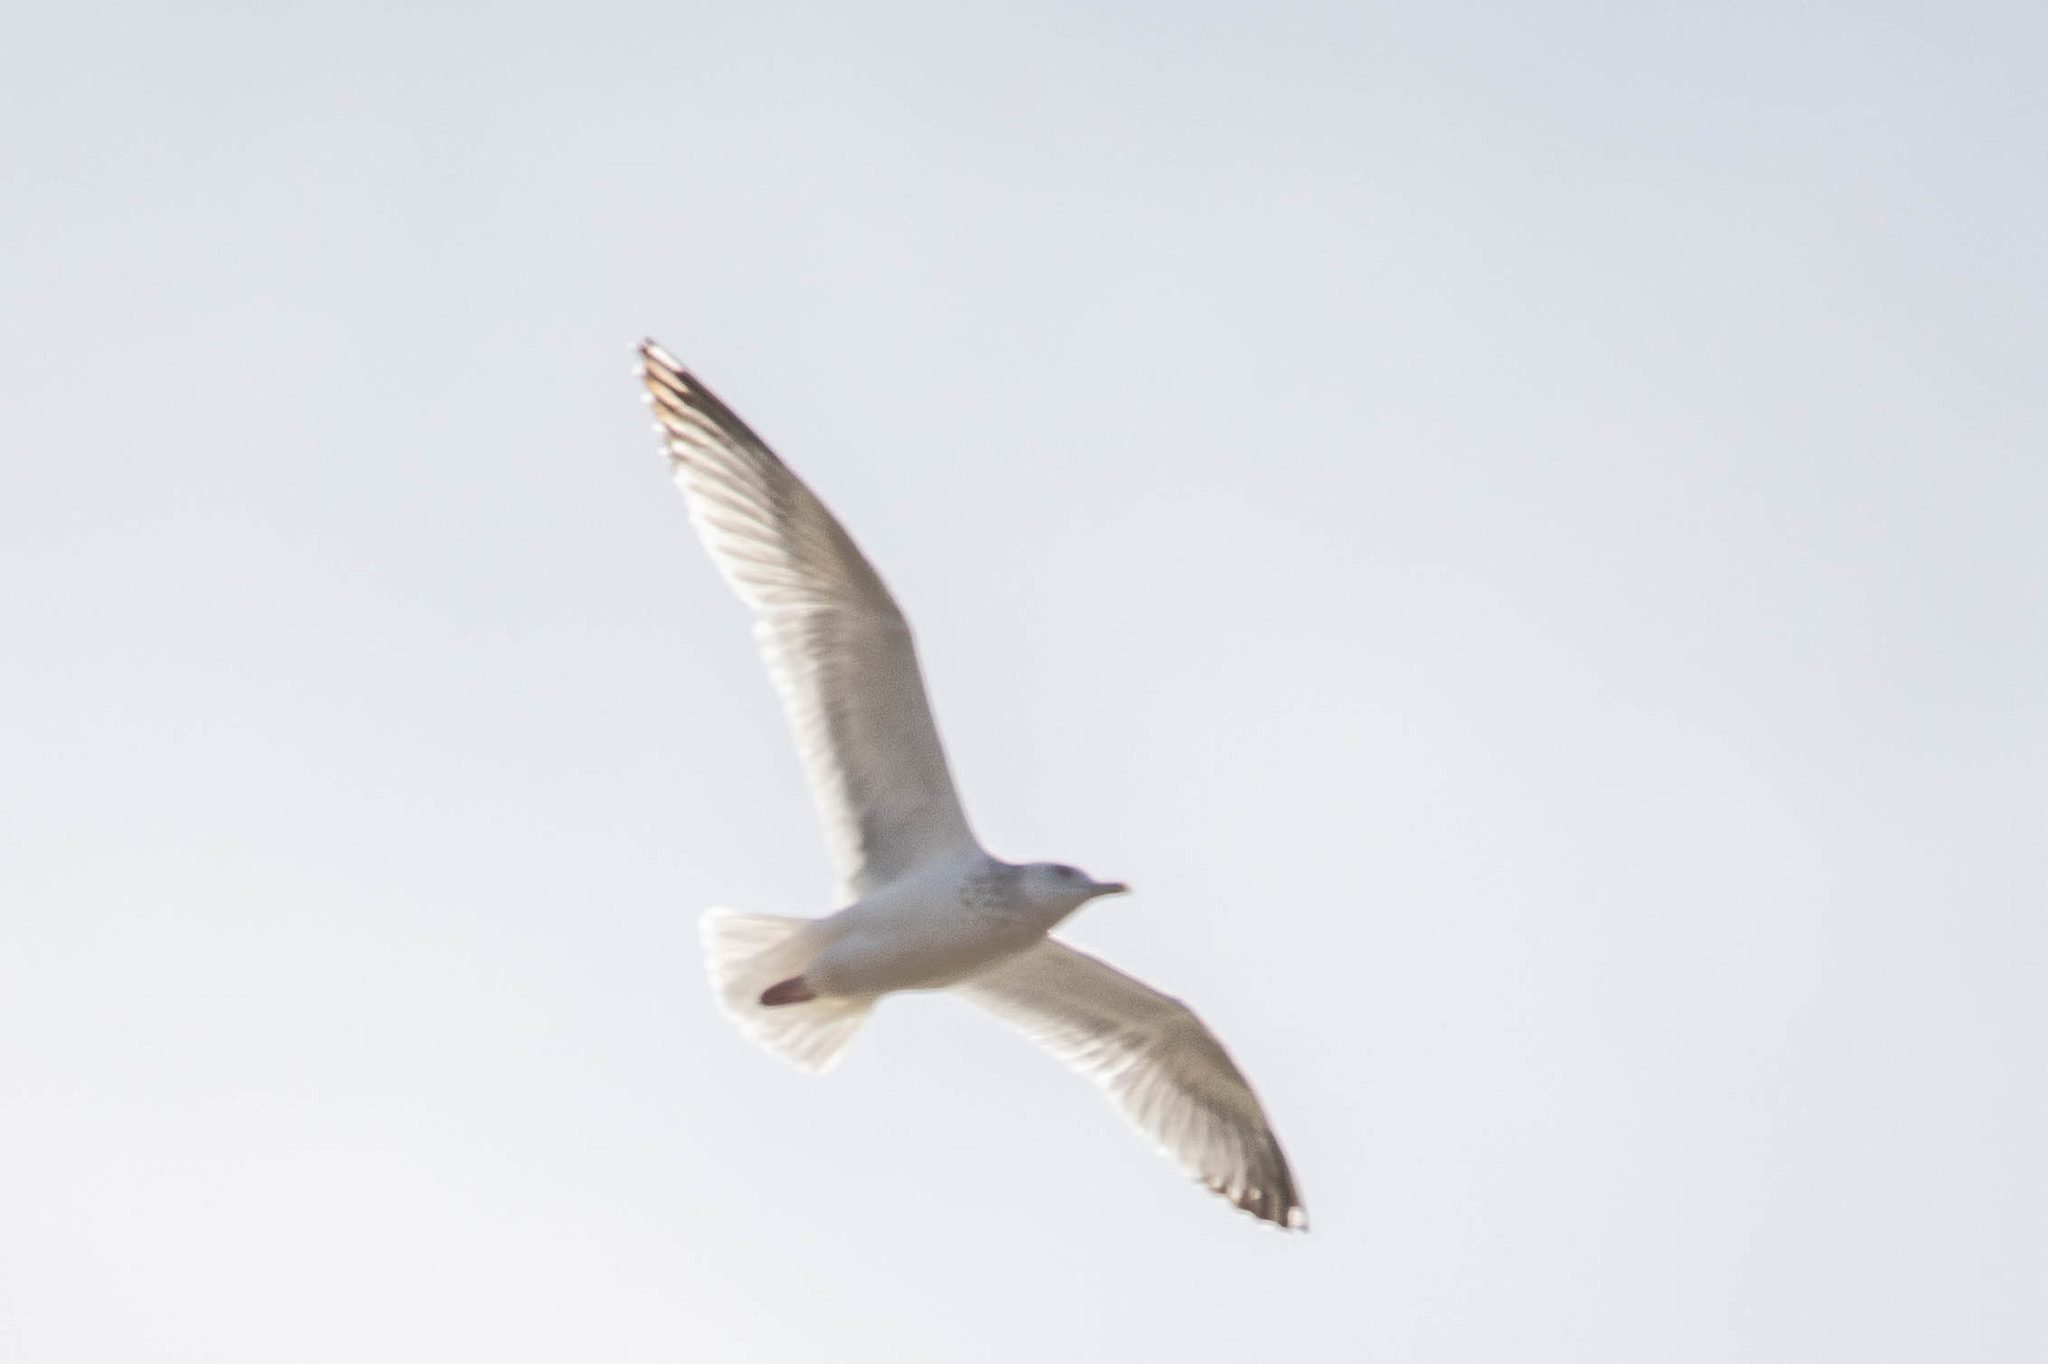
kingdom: Animalia
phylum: Chordata
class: Aves
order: Charadriiformes
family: Laridae
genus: Larus
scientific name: Larus argentatus
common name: Herring gull
